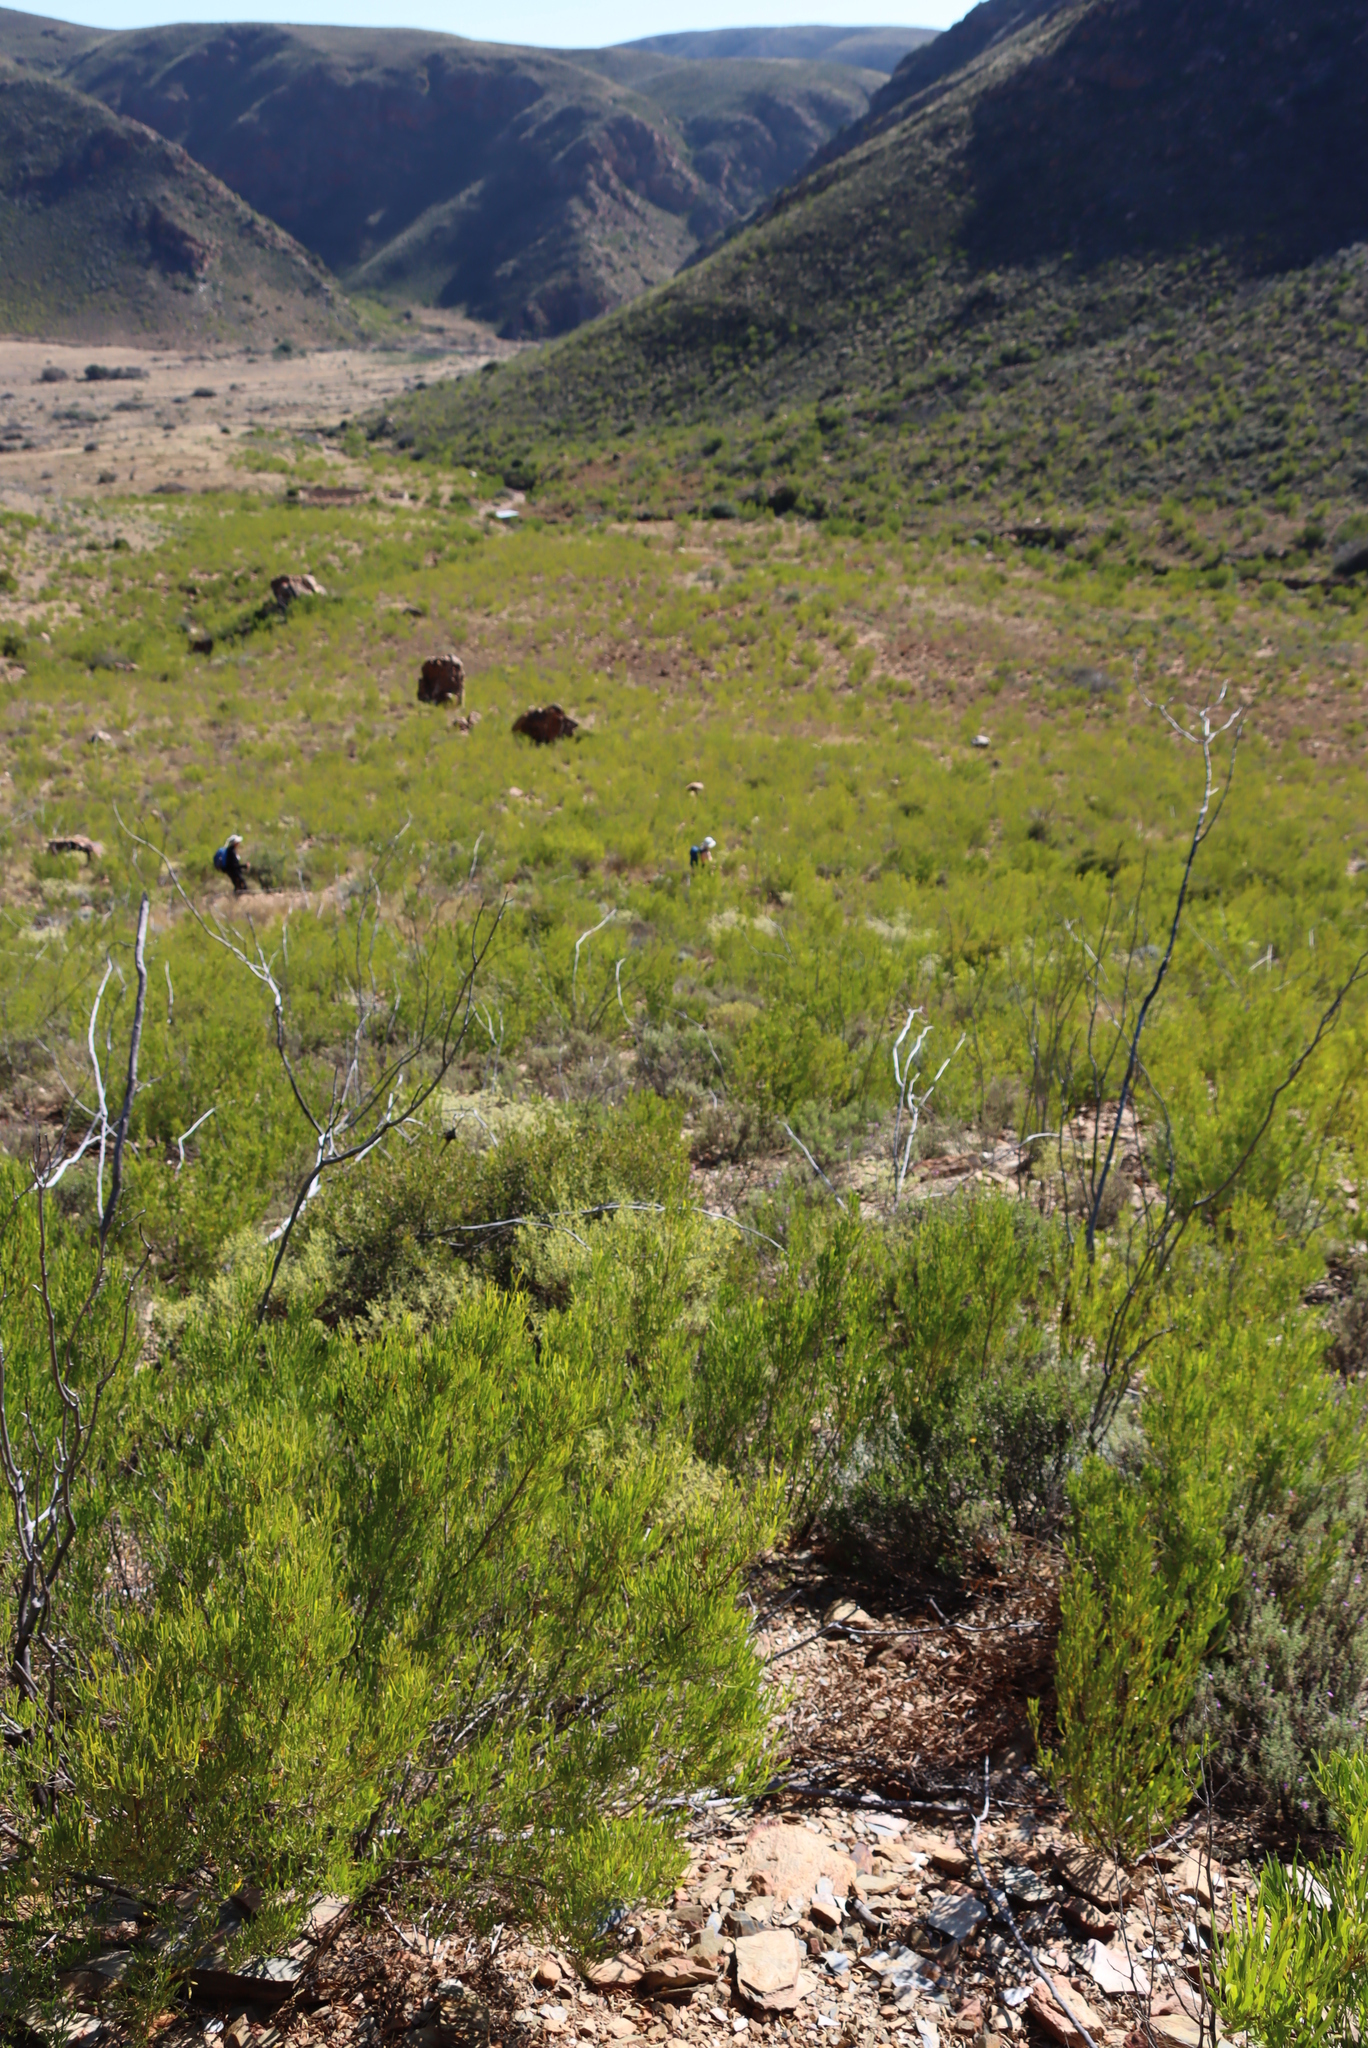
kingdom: Plantae
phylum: Tracheophyta
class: Magnoliopsida
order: Sapindales
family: Sapindaceae
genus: Dodonaea
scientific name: Dodonaea viscosa
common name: Hopbush
